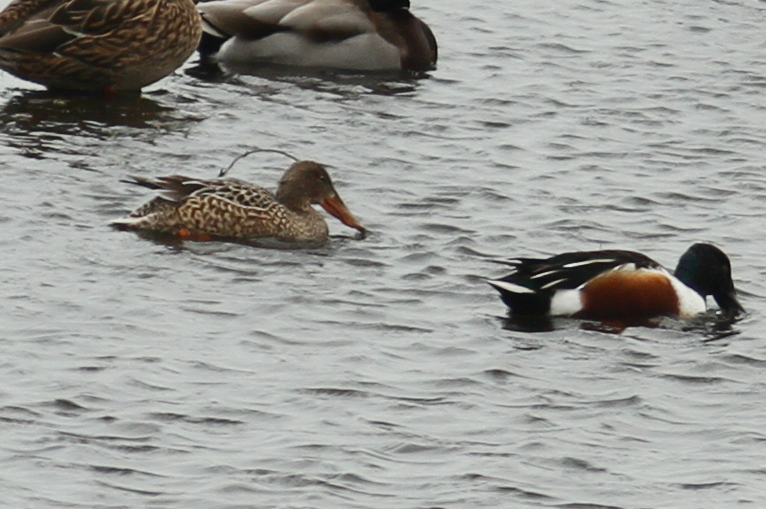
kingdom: Animalia
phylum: Chordata
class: Aves
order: Anseriformes
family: Anatidae
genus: Spatula
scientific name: Spatula clypeata
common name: Northern shoveler
